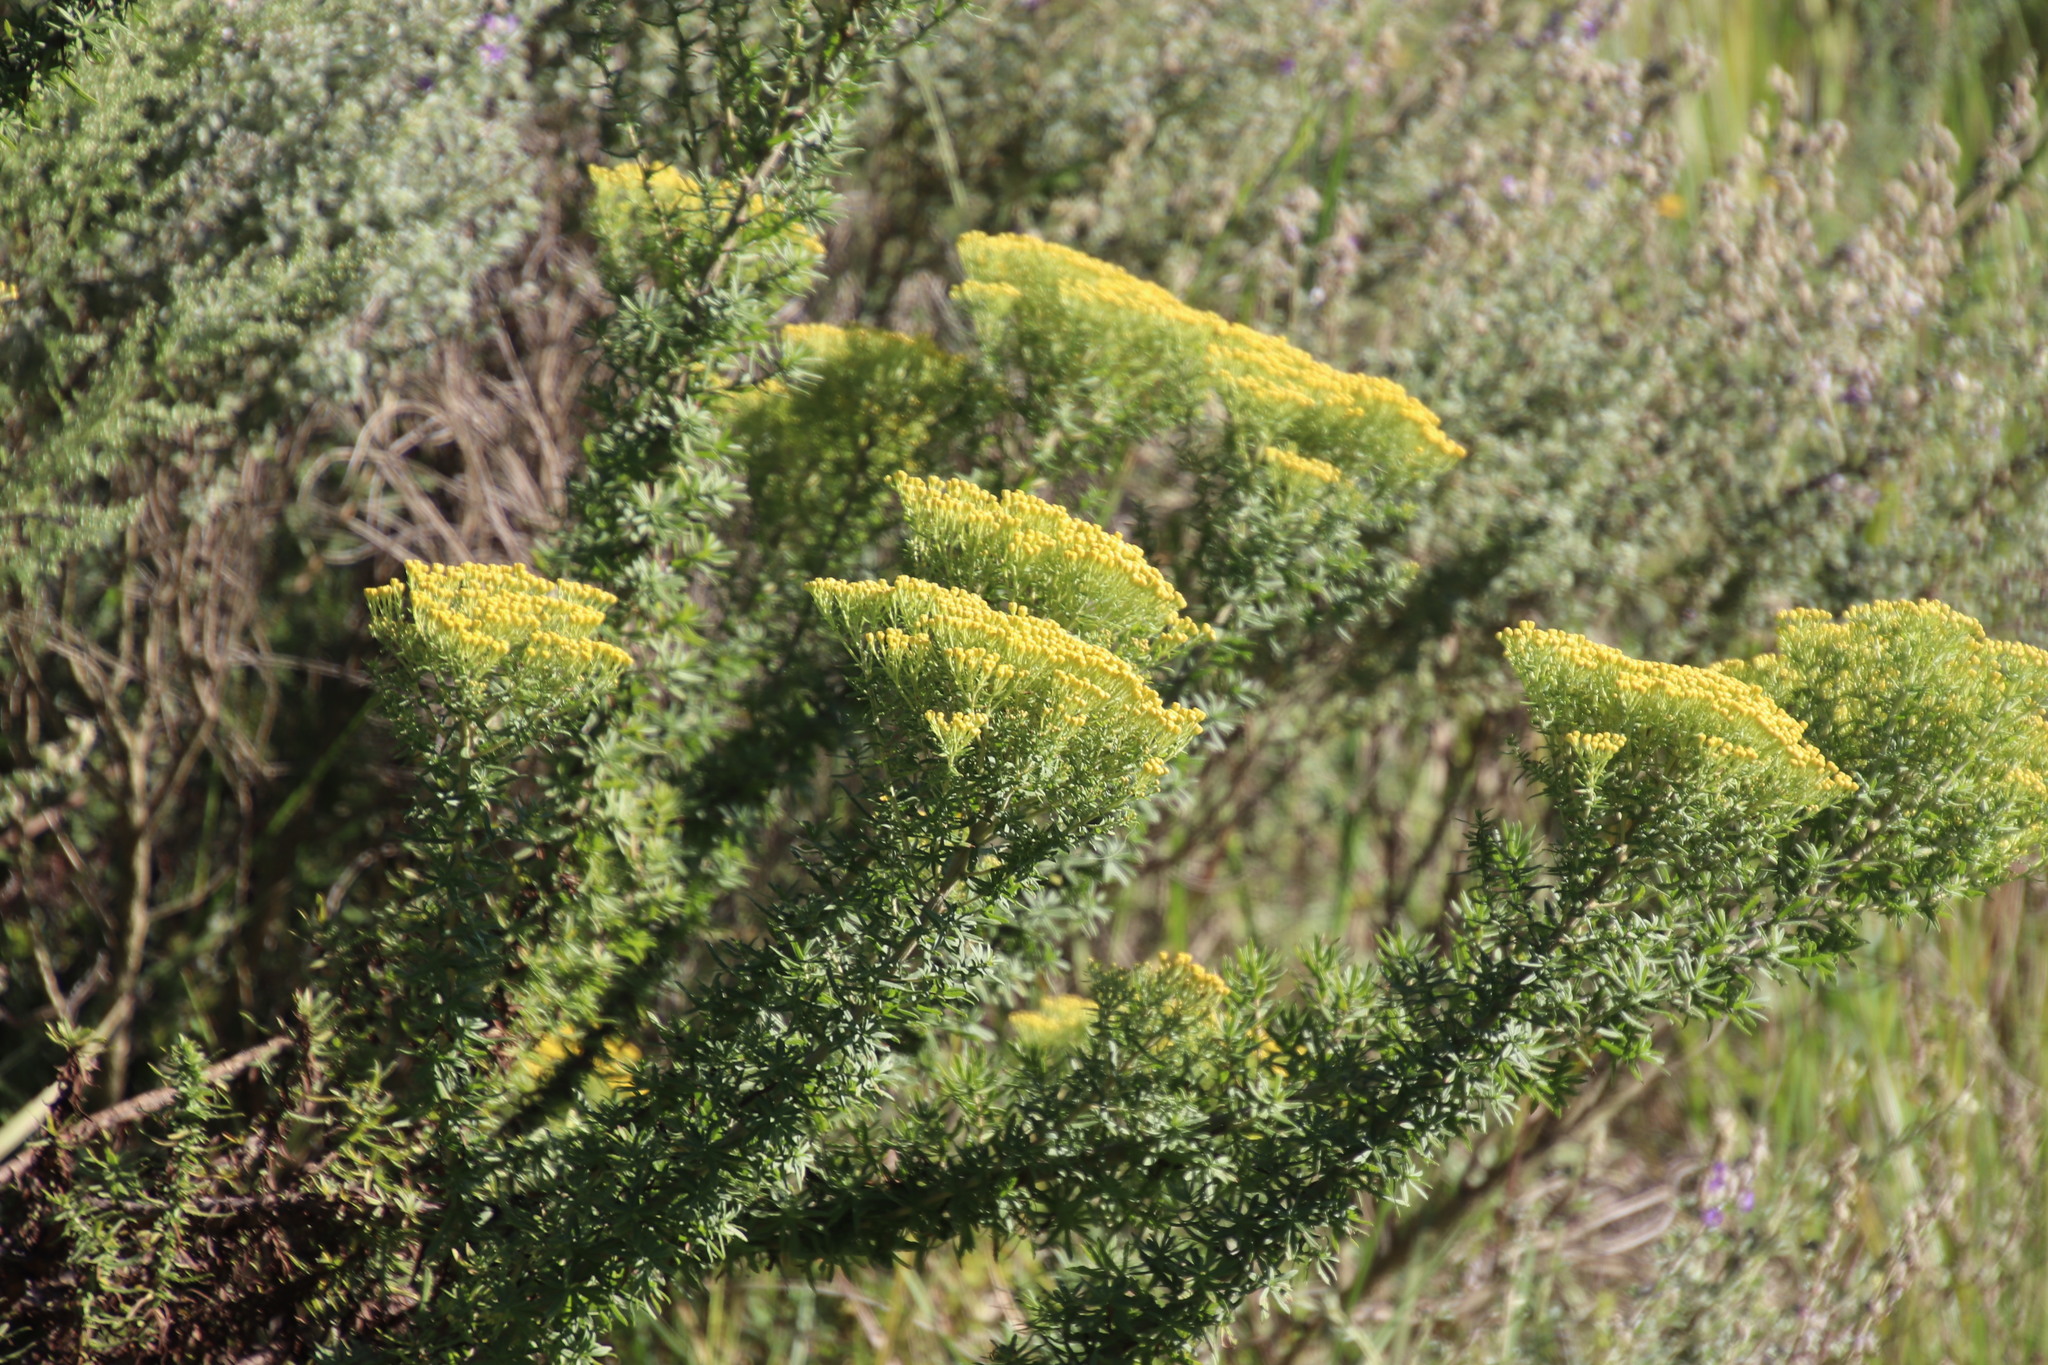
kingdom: Plantae
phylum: Tracheophyta
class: Magnoliopsida
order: Asterales
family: Asteraceae
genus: Phymaspermum
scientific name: Phymaspermum acerosum
